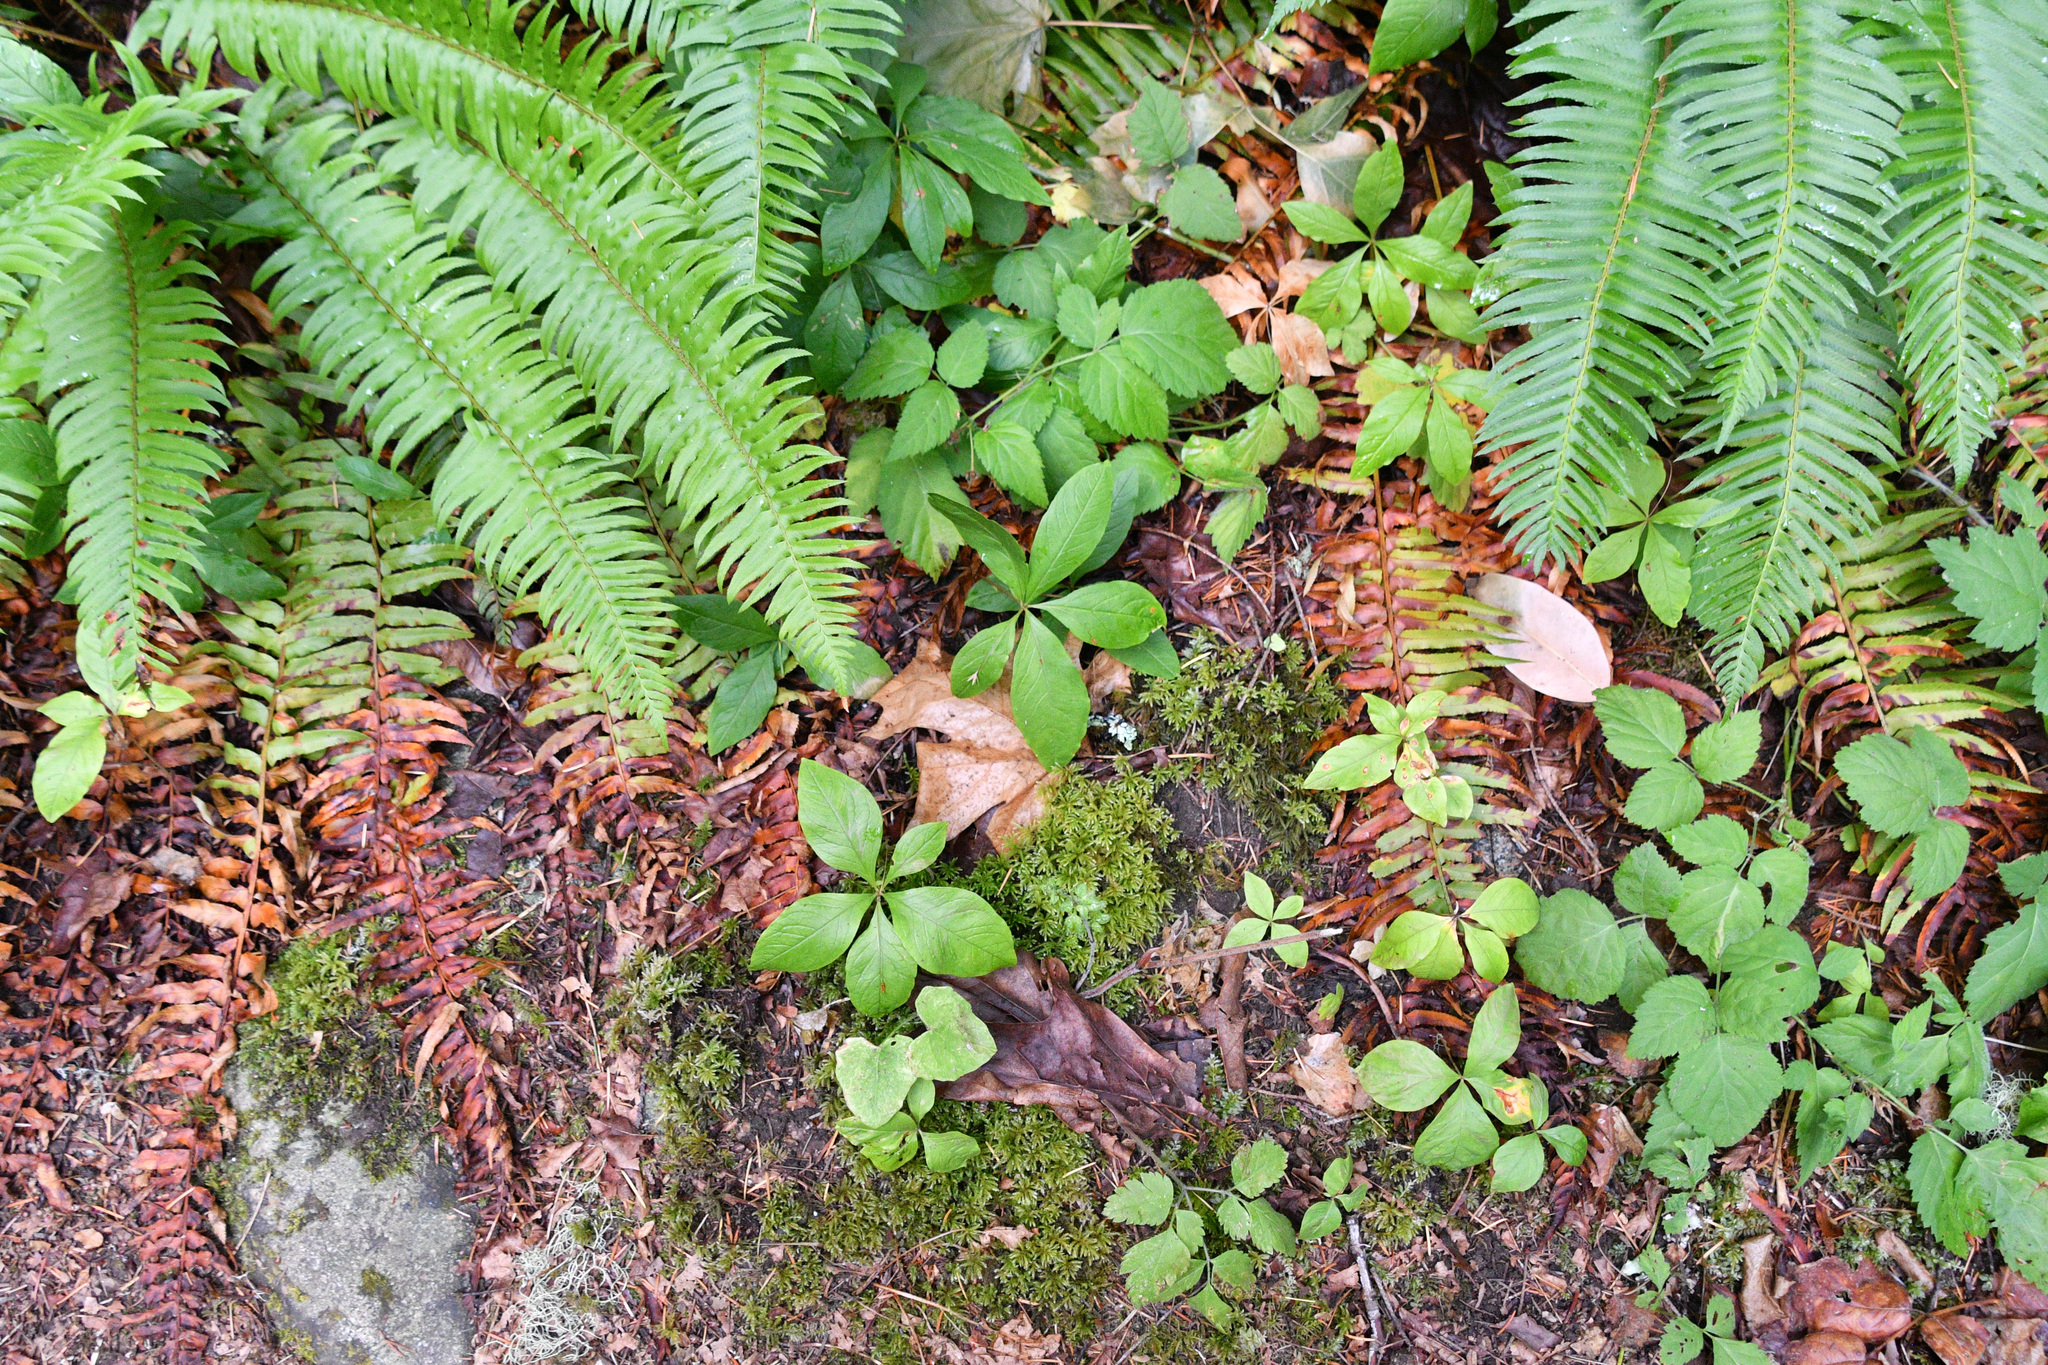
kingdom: Plantae
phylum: Tracheophyta
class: Polypodiopsida
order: Polypodiales
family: Dryopteridaceae
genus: Polystichum
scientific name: Polystichum munitum
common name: Western sword-fern
